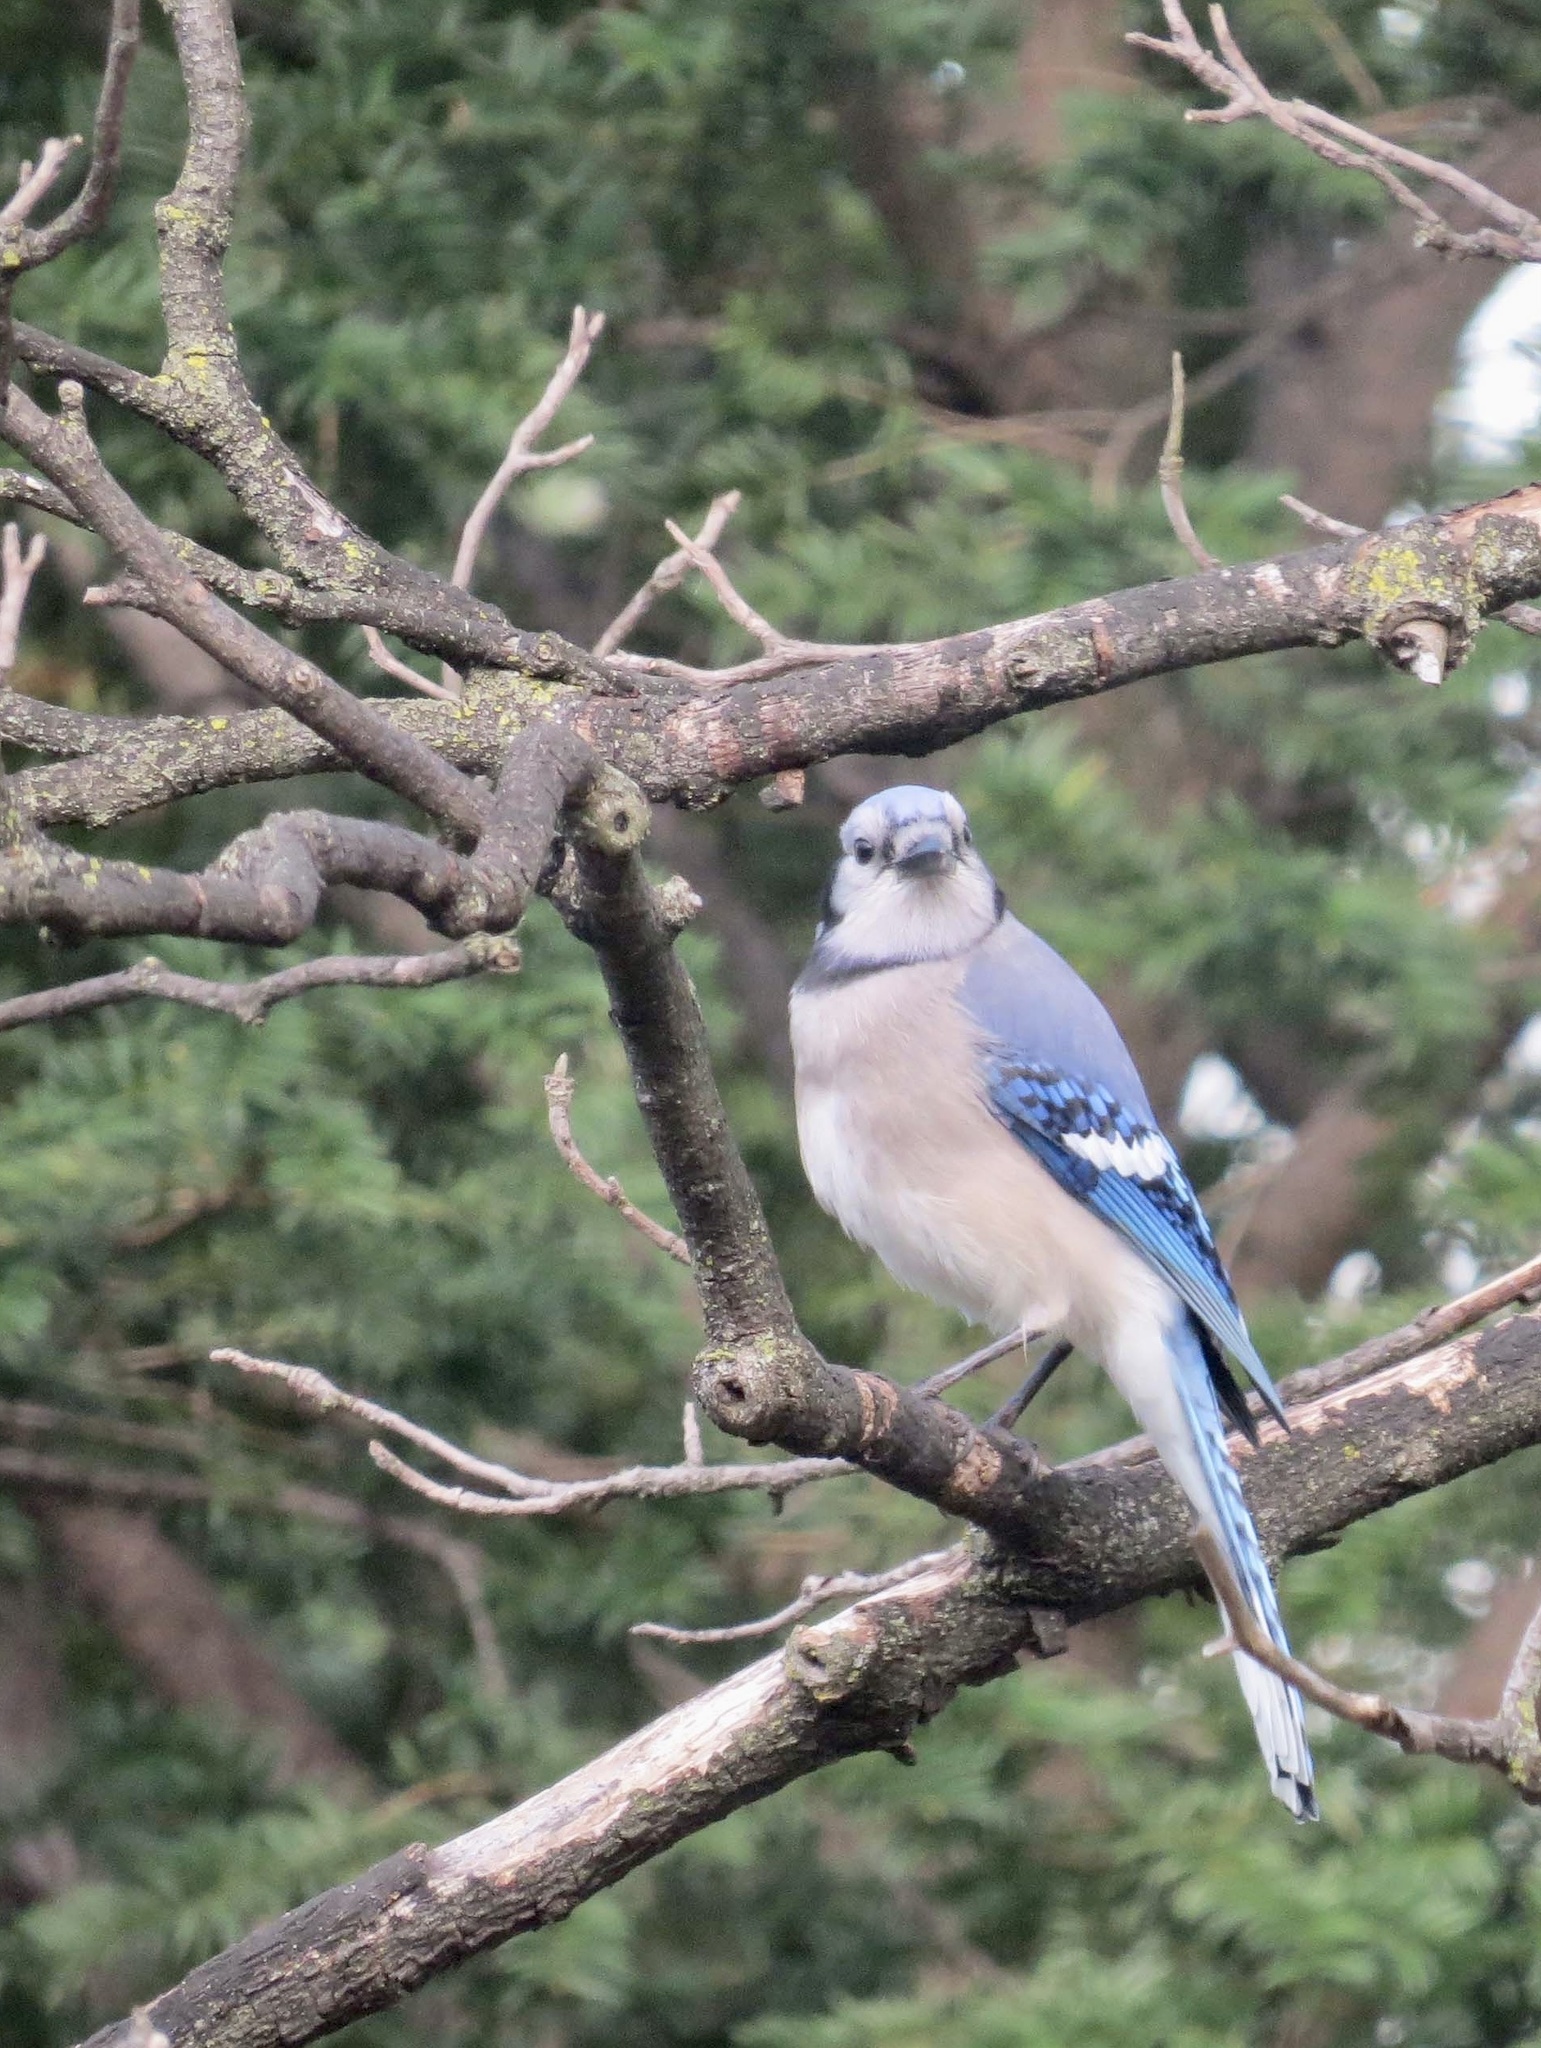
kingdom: Animalia
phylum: Chordata
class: Aves
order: Passeriformes
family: Corvidae
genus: Cyanocitta
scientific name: Cyanocitta cristata
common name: Blue jay
